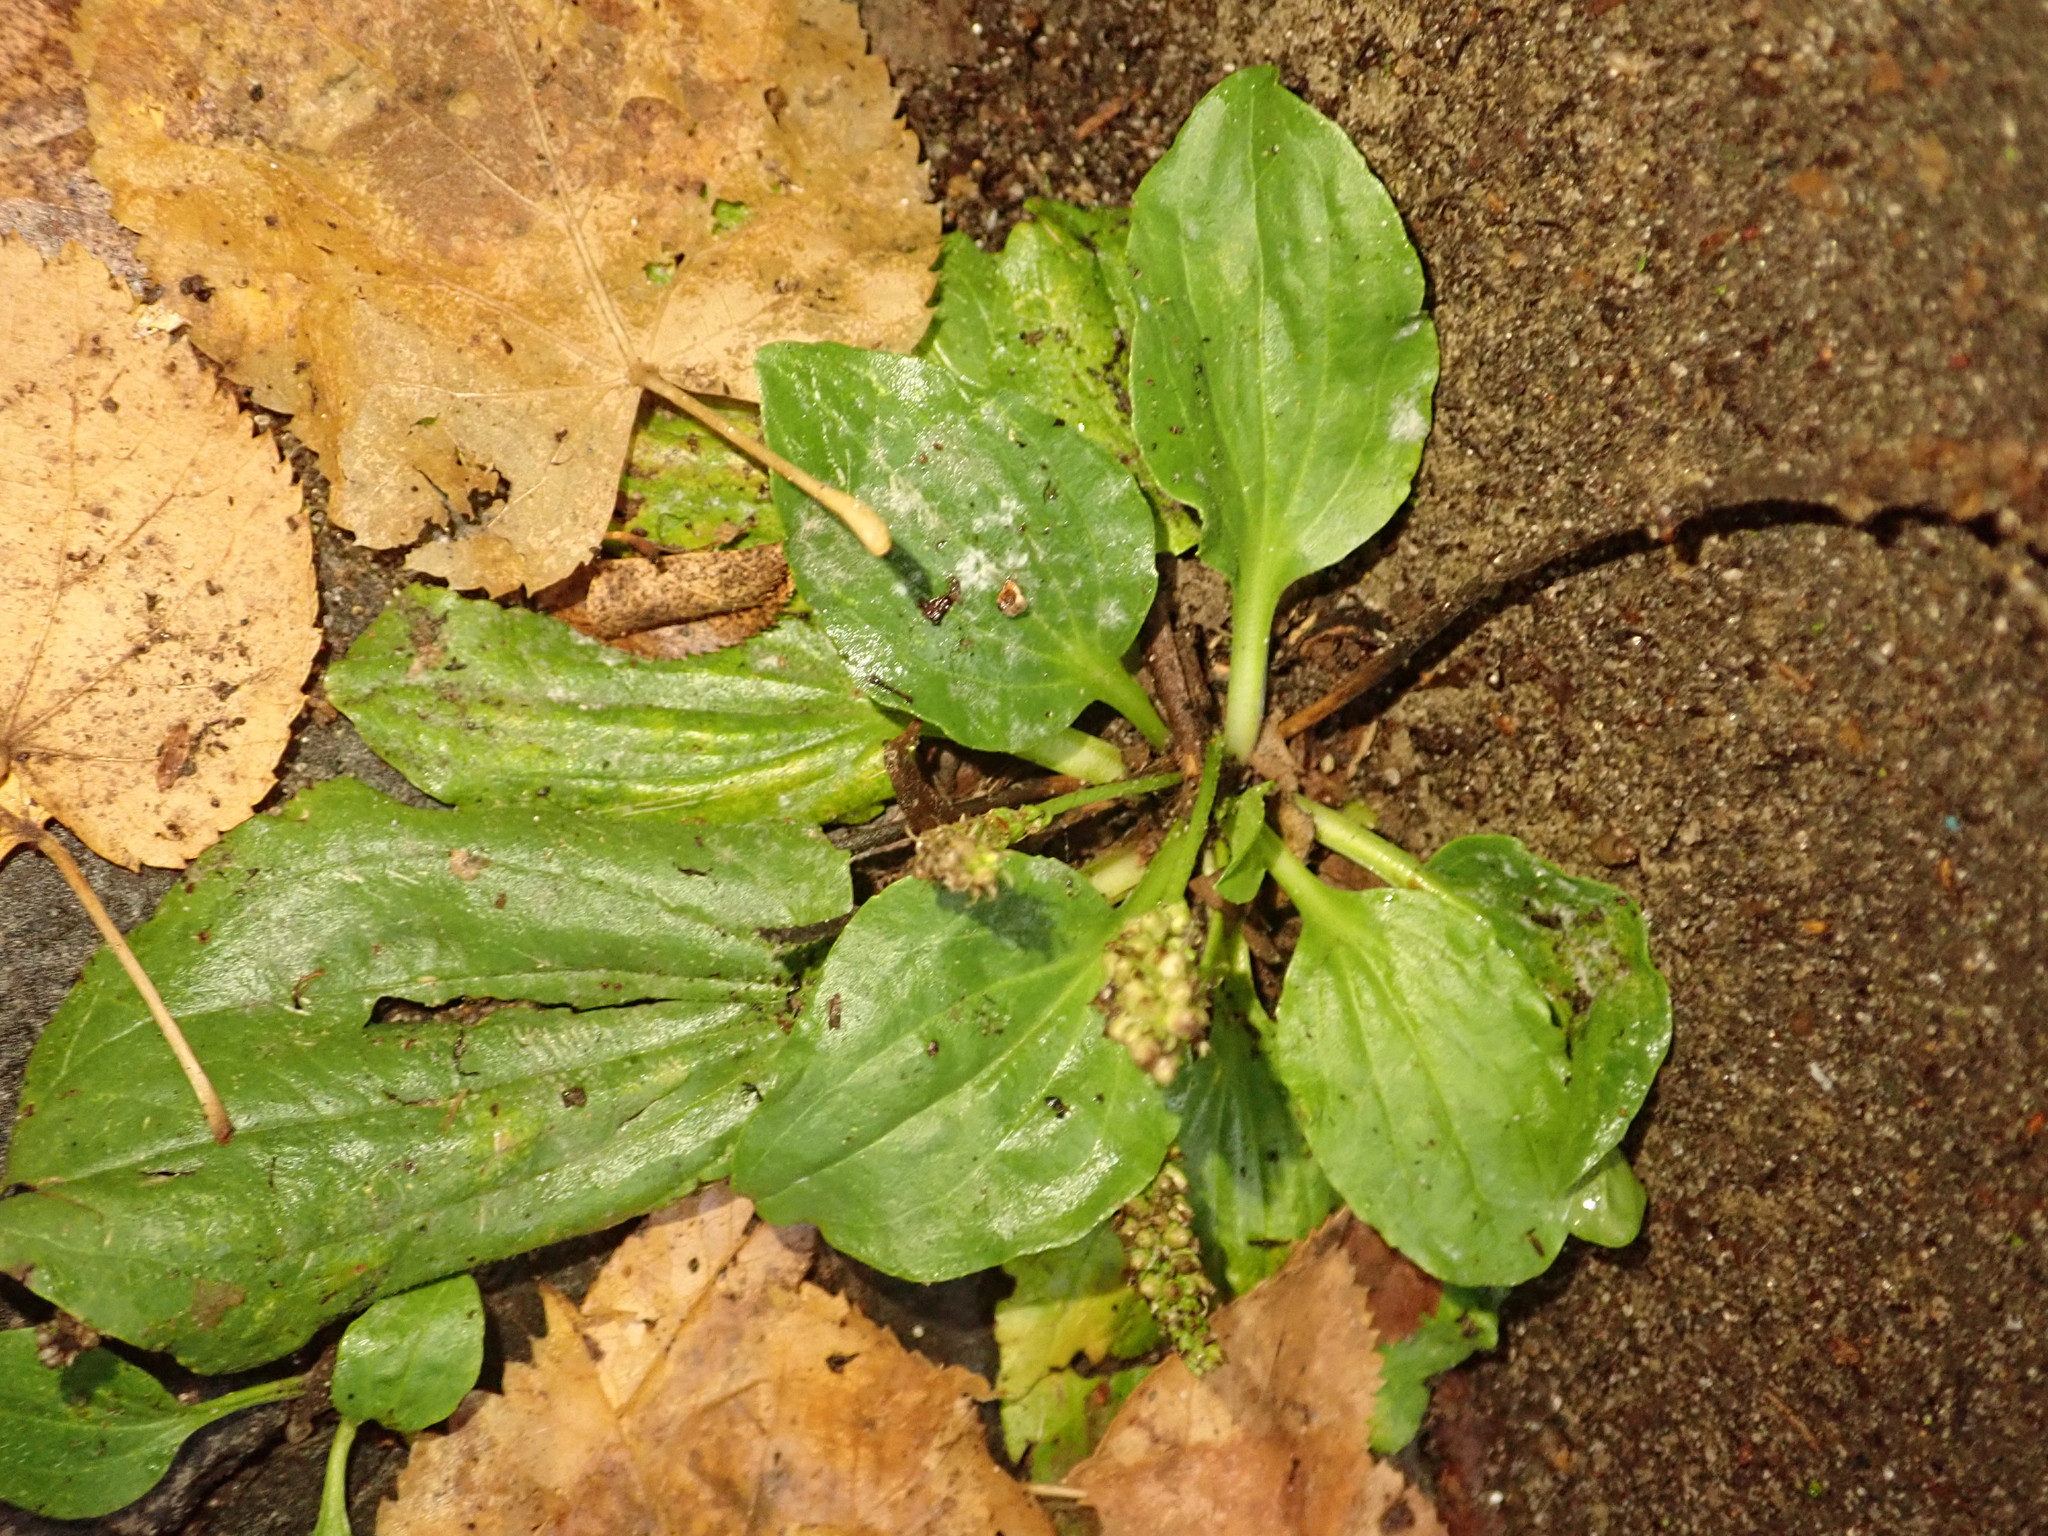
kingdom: Plantae
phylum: Tracheophyta
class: Magnoliopsida
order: Lamiales
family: Plantaginaceae
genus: Plantago
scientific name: Plantago major
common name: Common plantain
